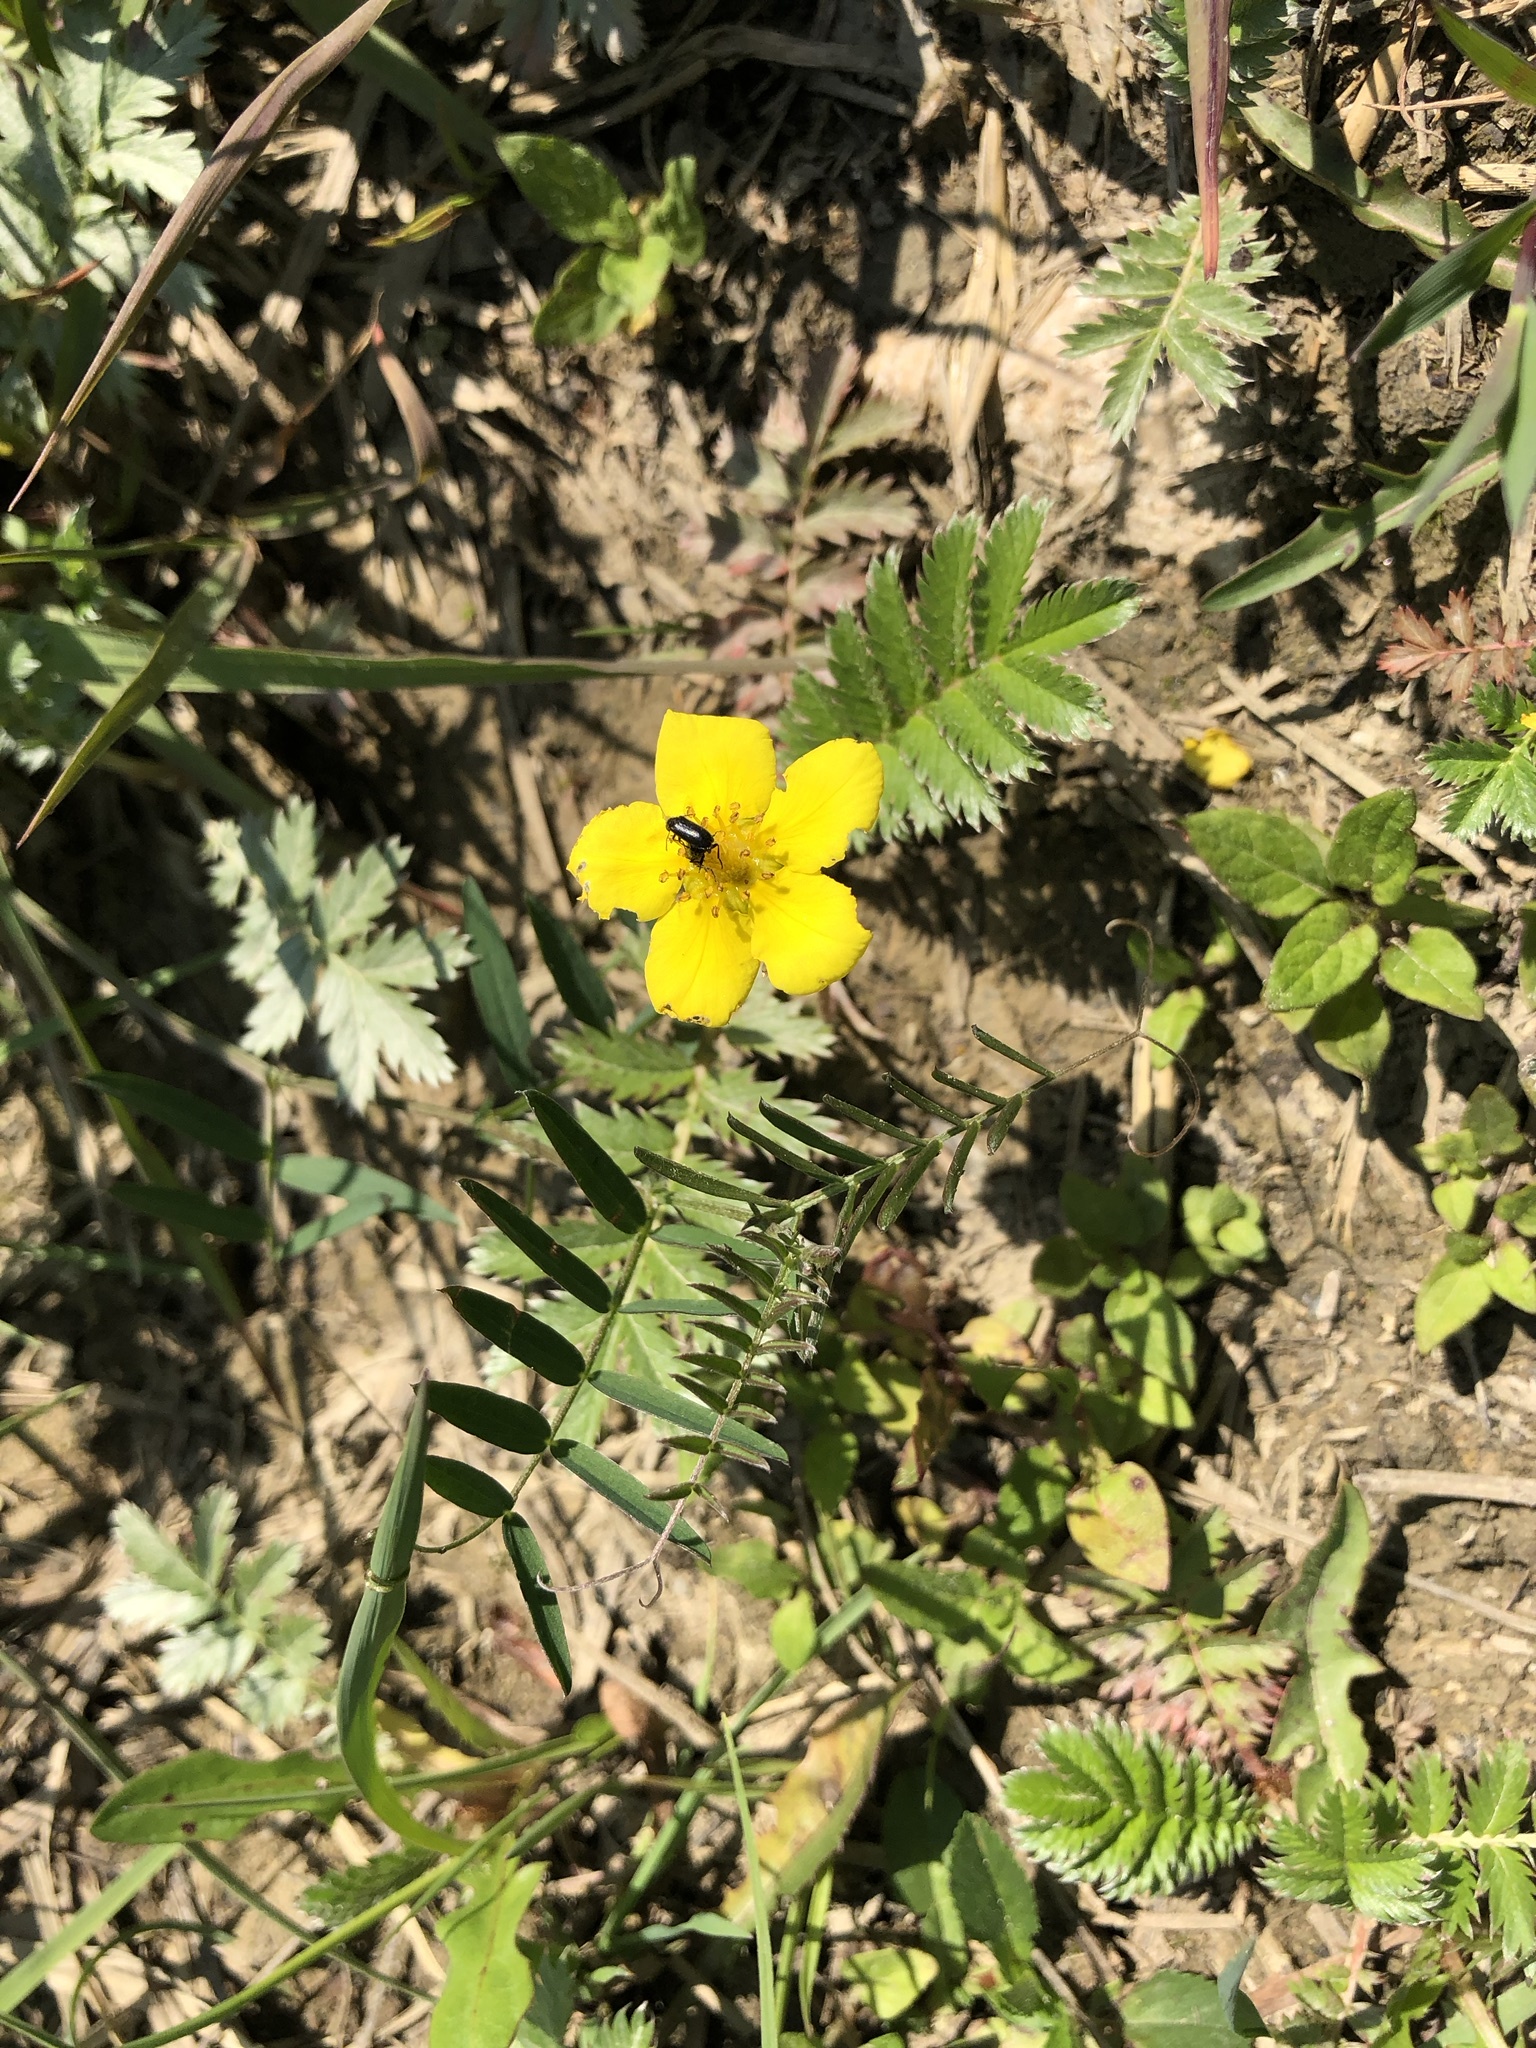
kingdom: Plantae
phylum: Tracheophyta
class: Magnoliopsida
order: Rosales
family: Rosaceae
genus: Argentina
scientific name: Argentina anserina
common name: Common silverweed
